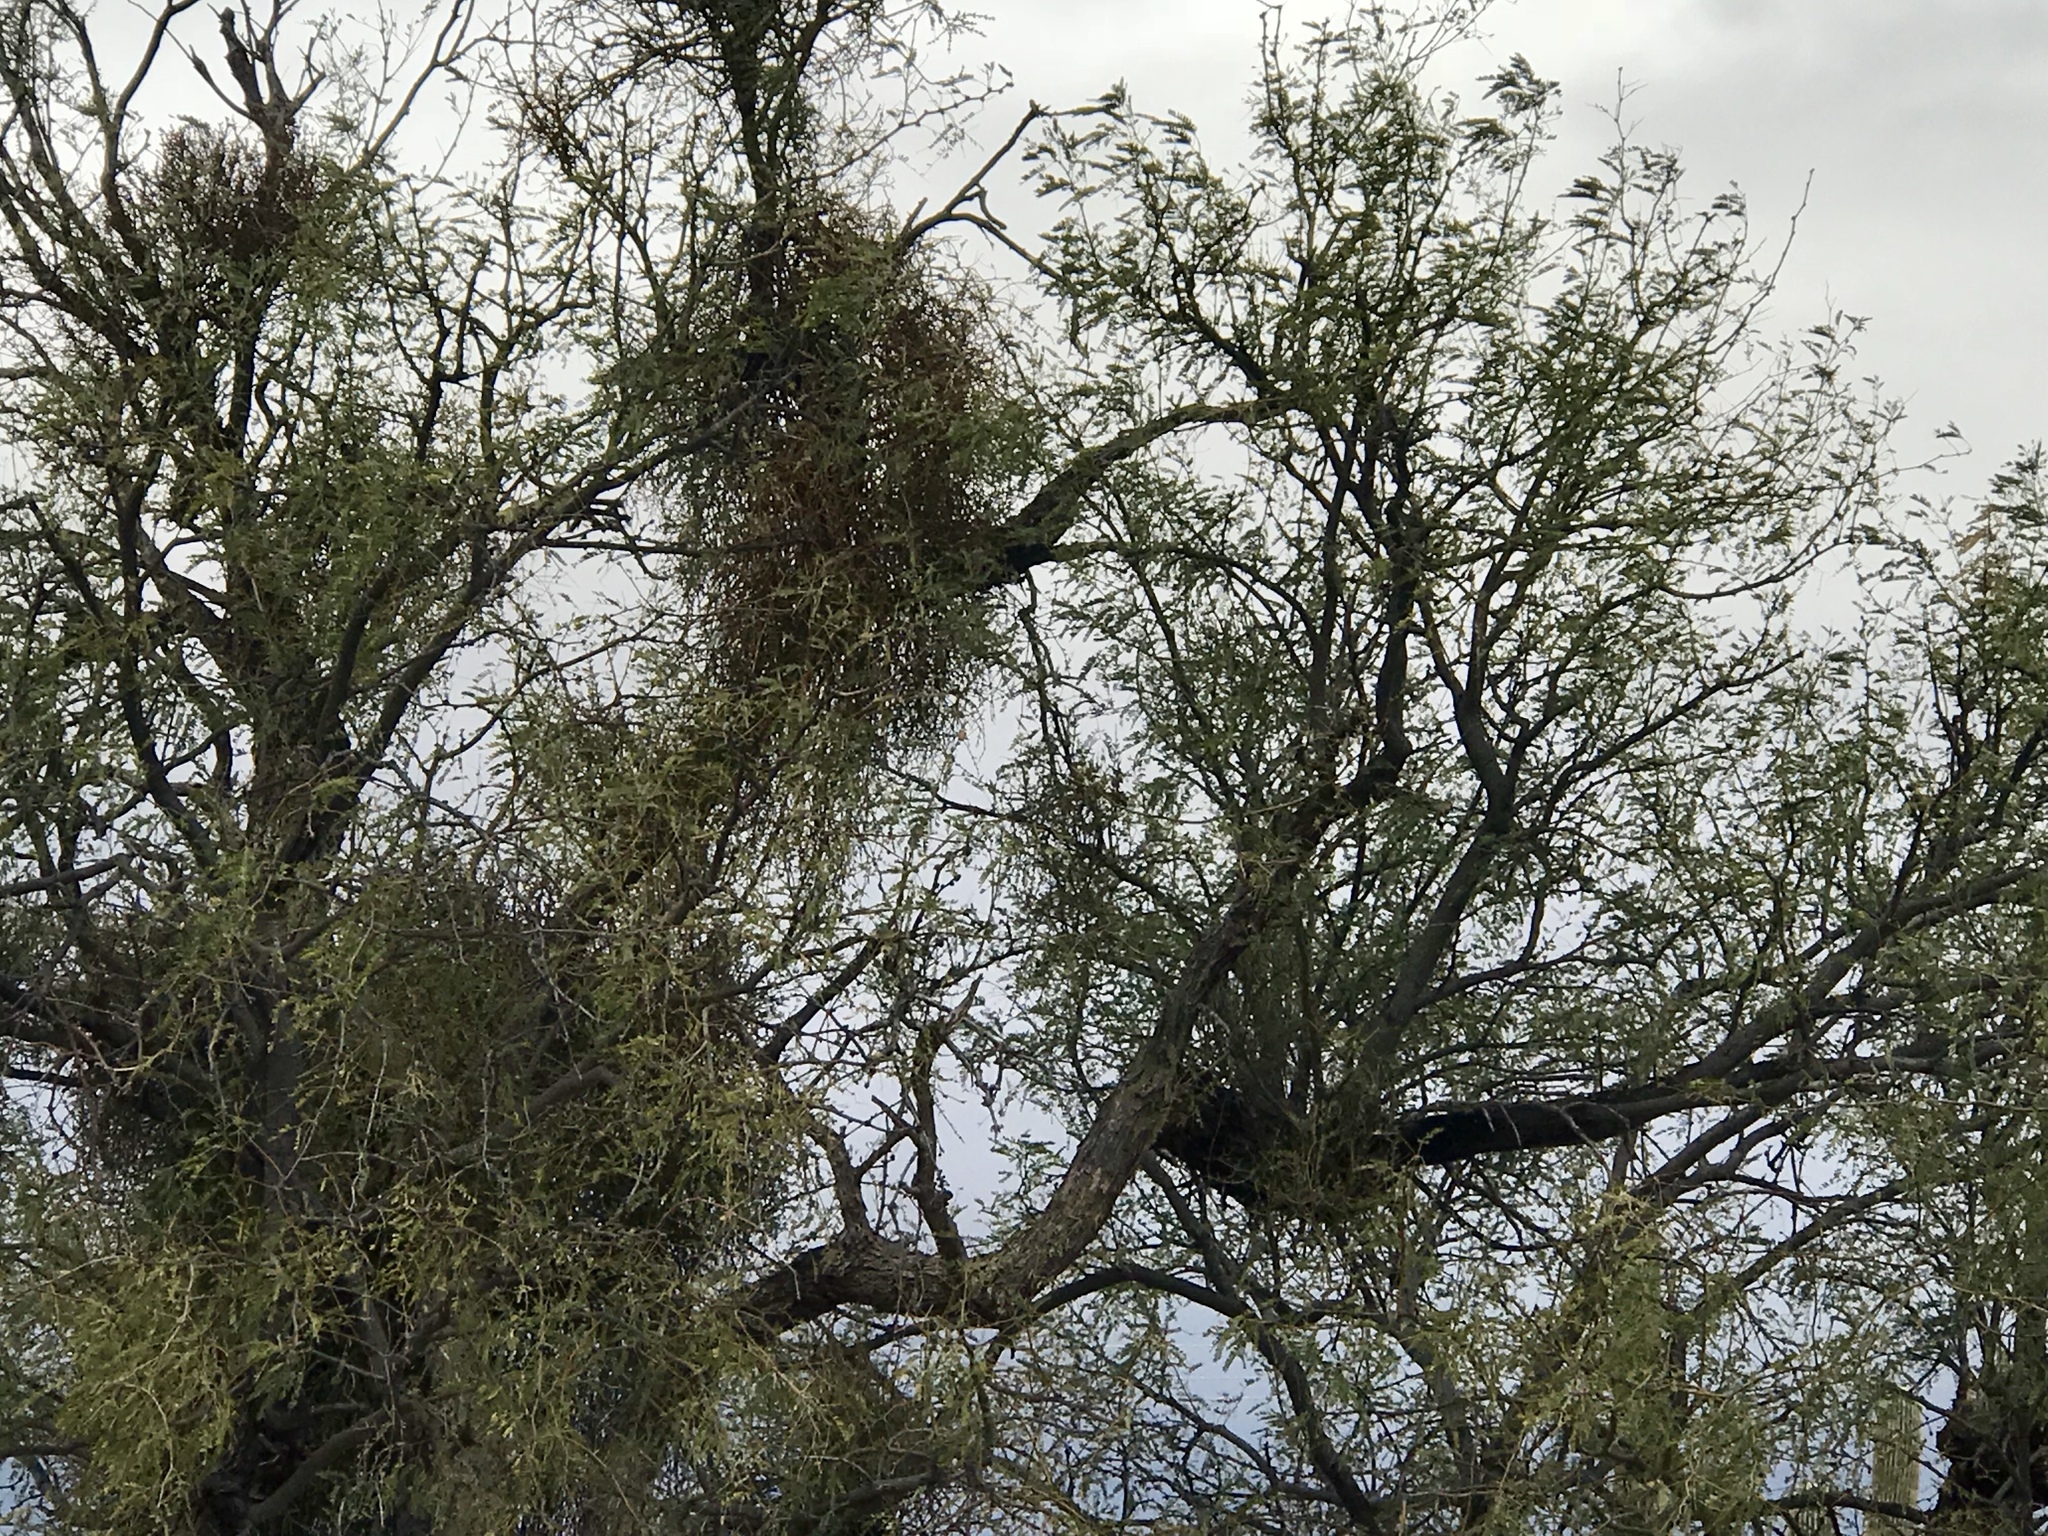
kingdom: Plantae
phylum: Tracheophyta
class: Magnoliopsida
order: Santalales
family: Viscaceae
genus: Phoradendron
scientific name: Phoradendron californicum
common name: Acacia mistletoe
